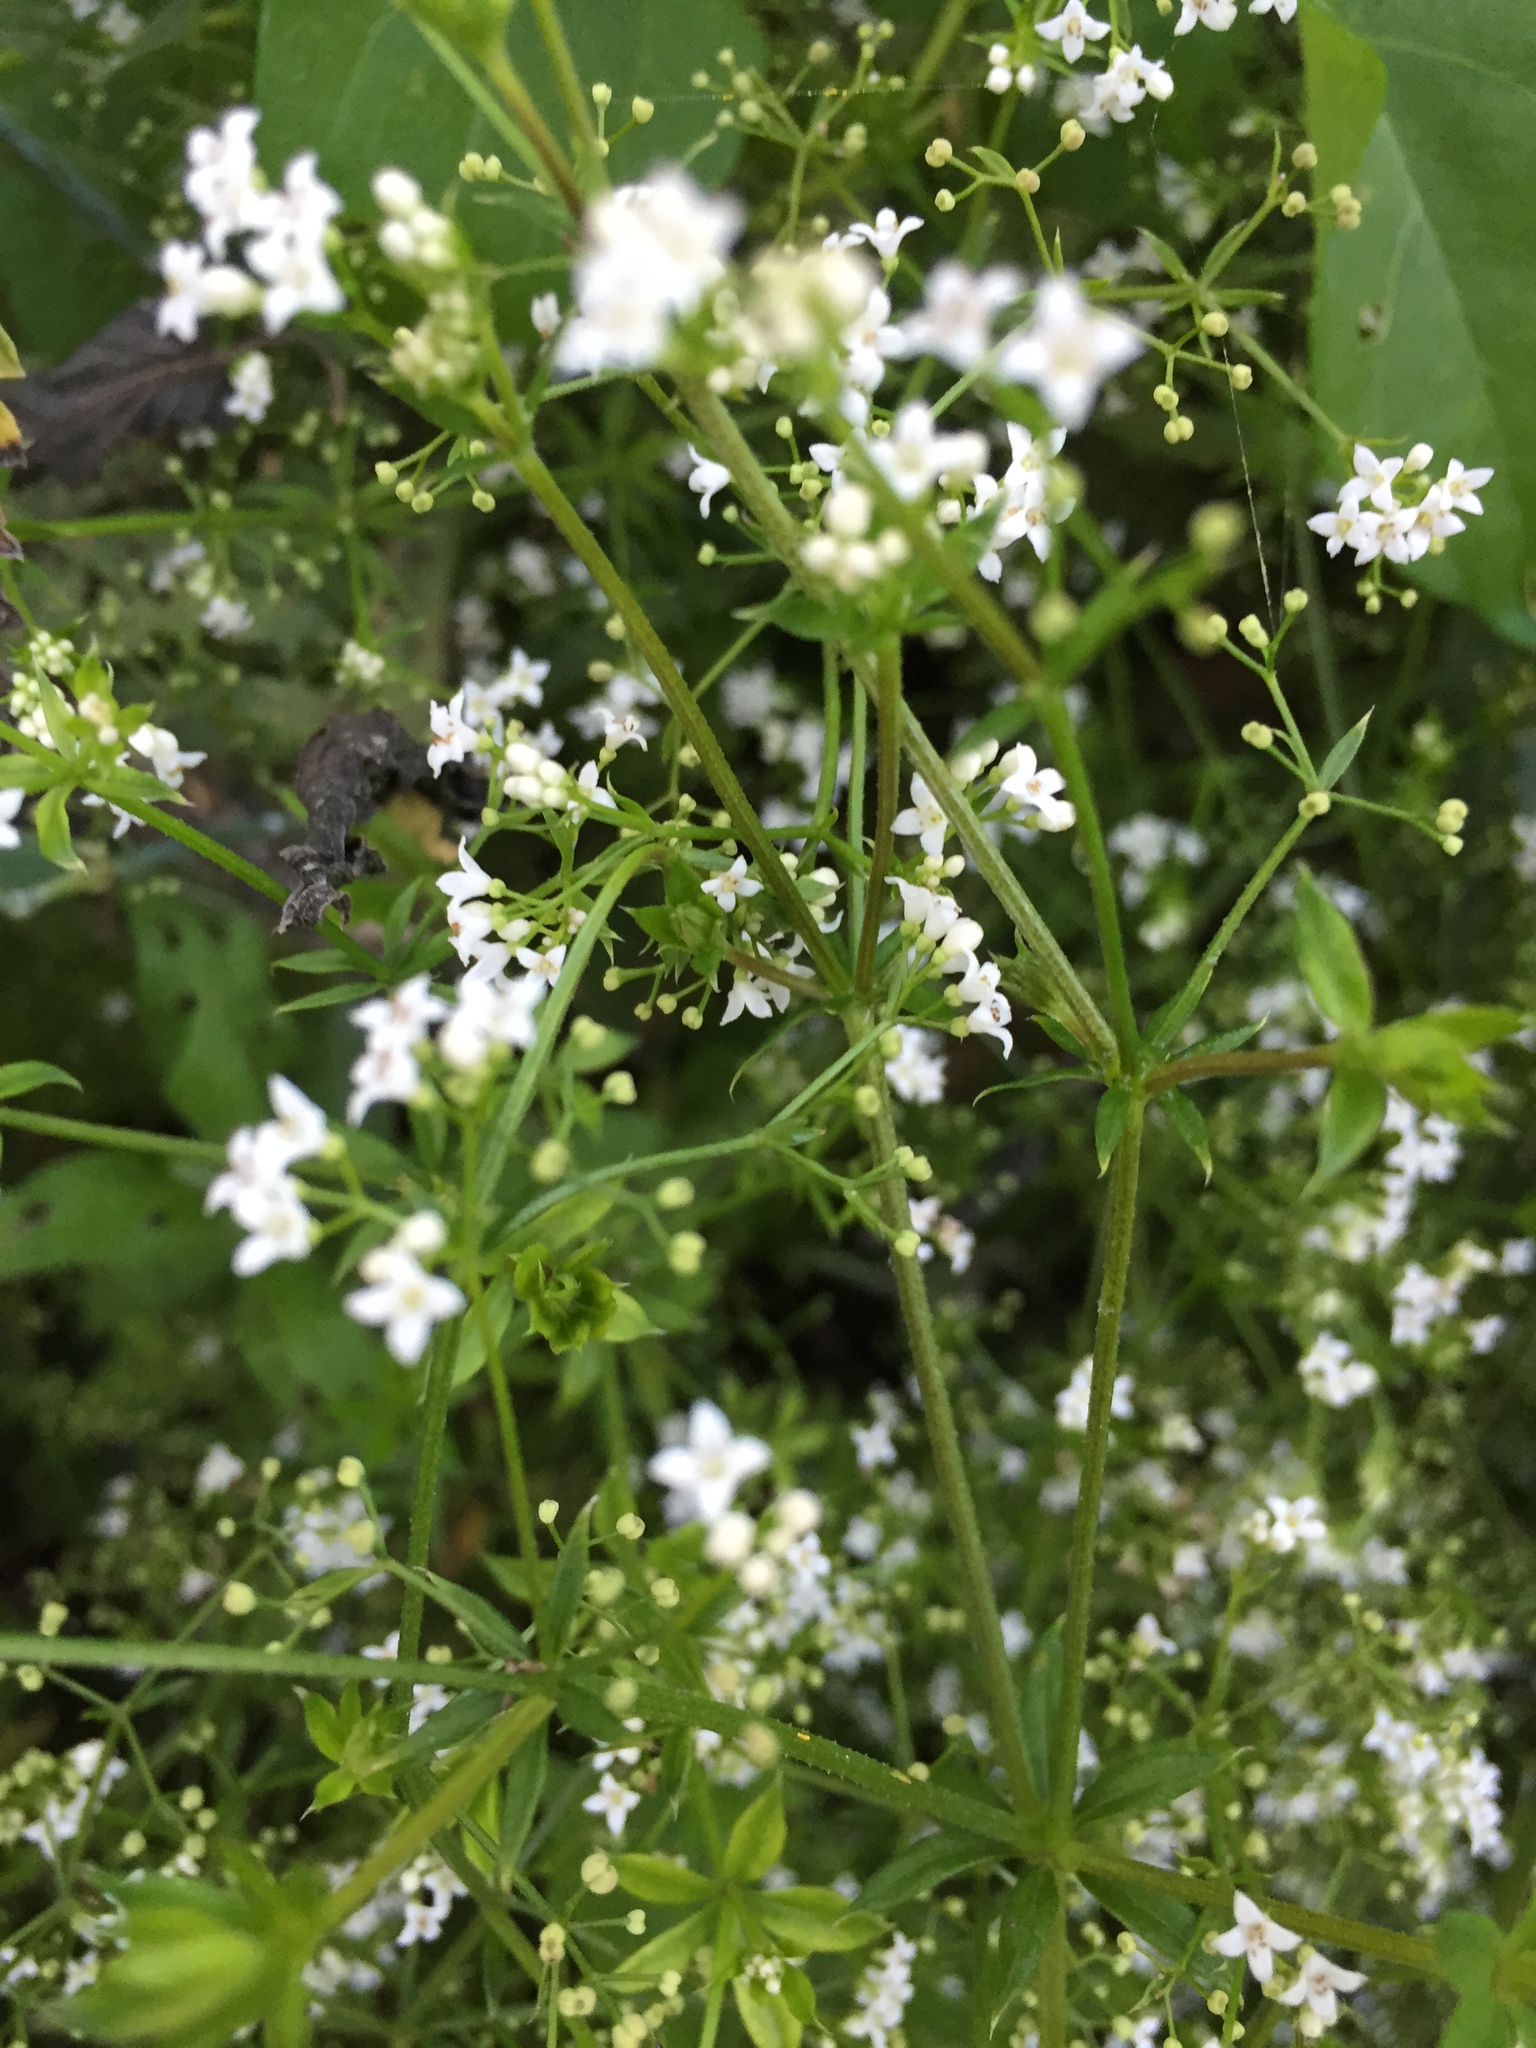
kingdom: Plantae
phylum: Tracheophyta
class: Magnoliopsida
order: Gentianales
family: Rubiaceae
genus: Galium
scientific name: Galium rivale
